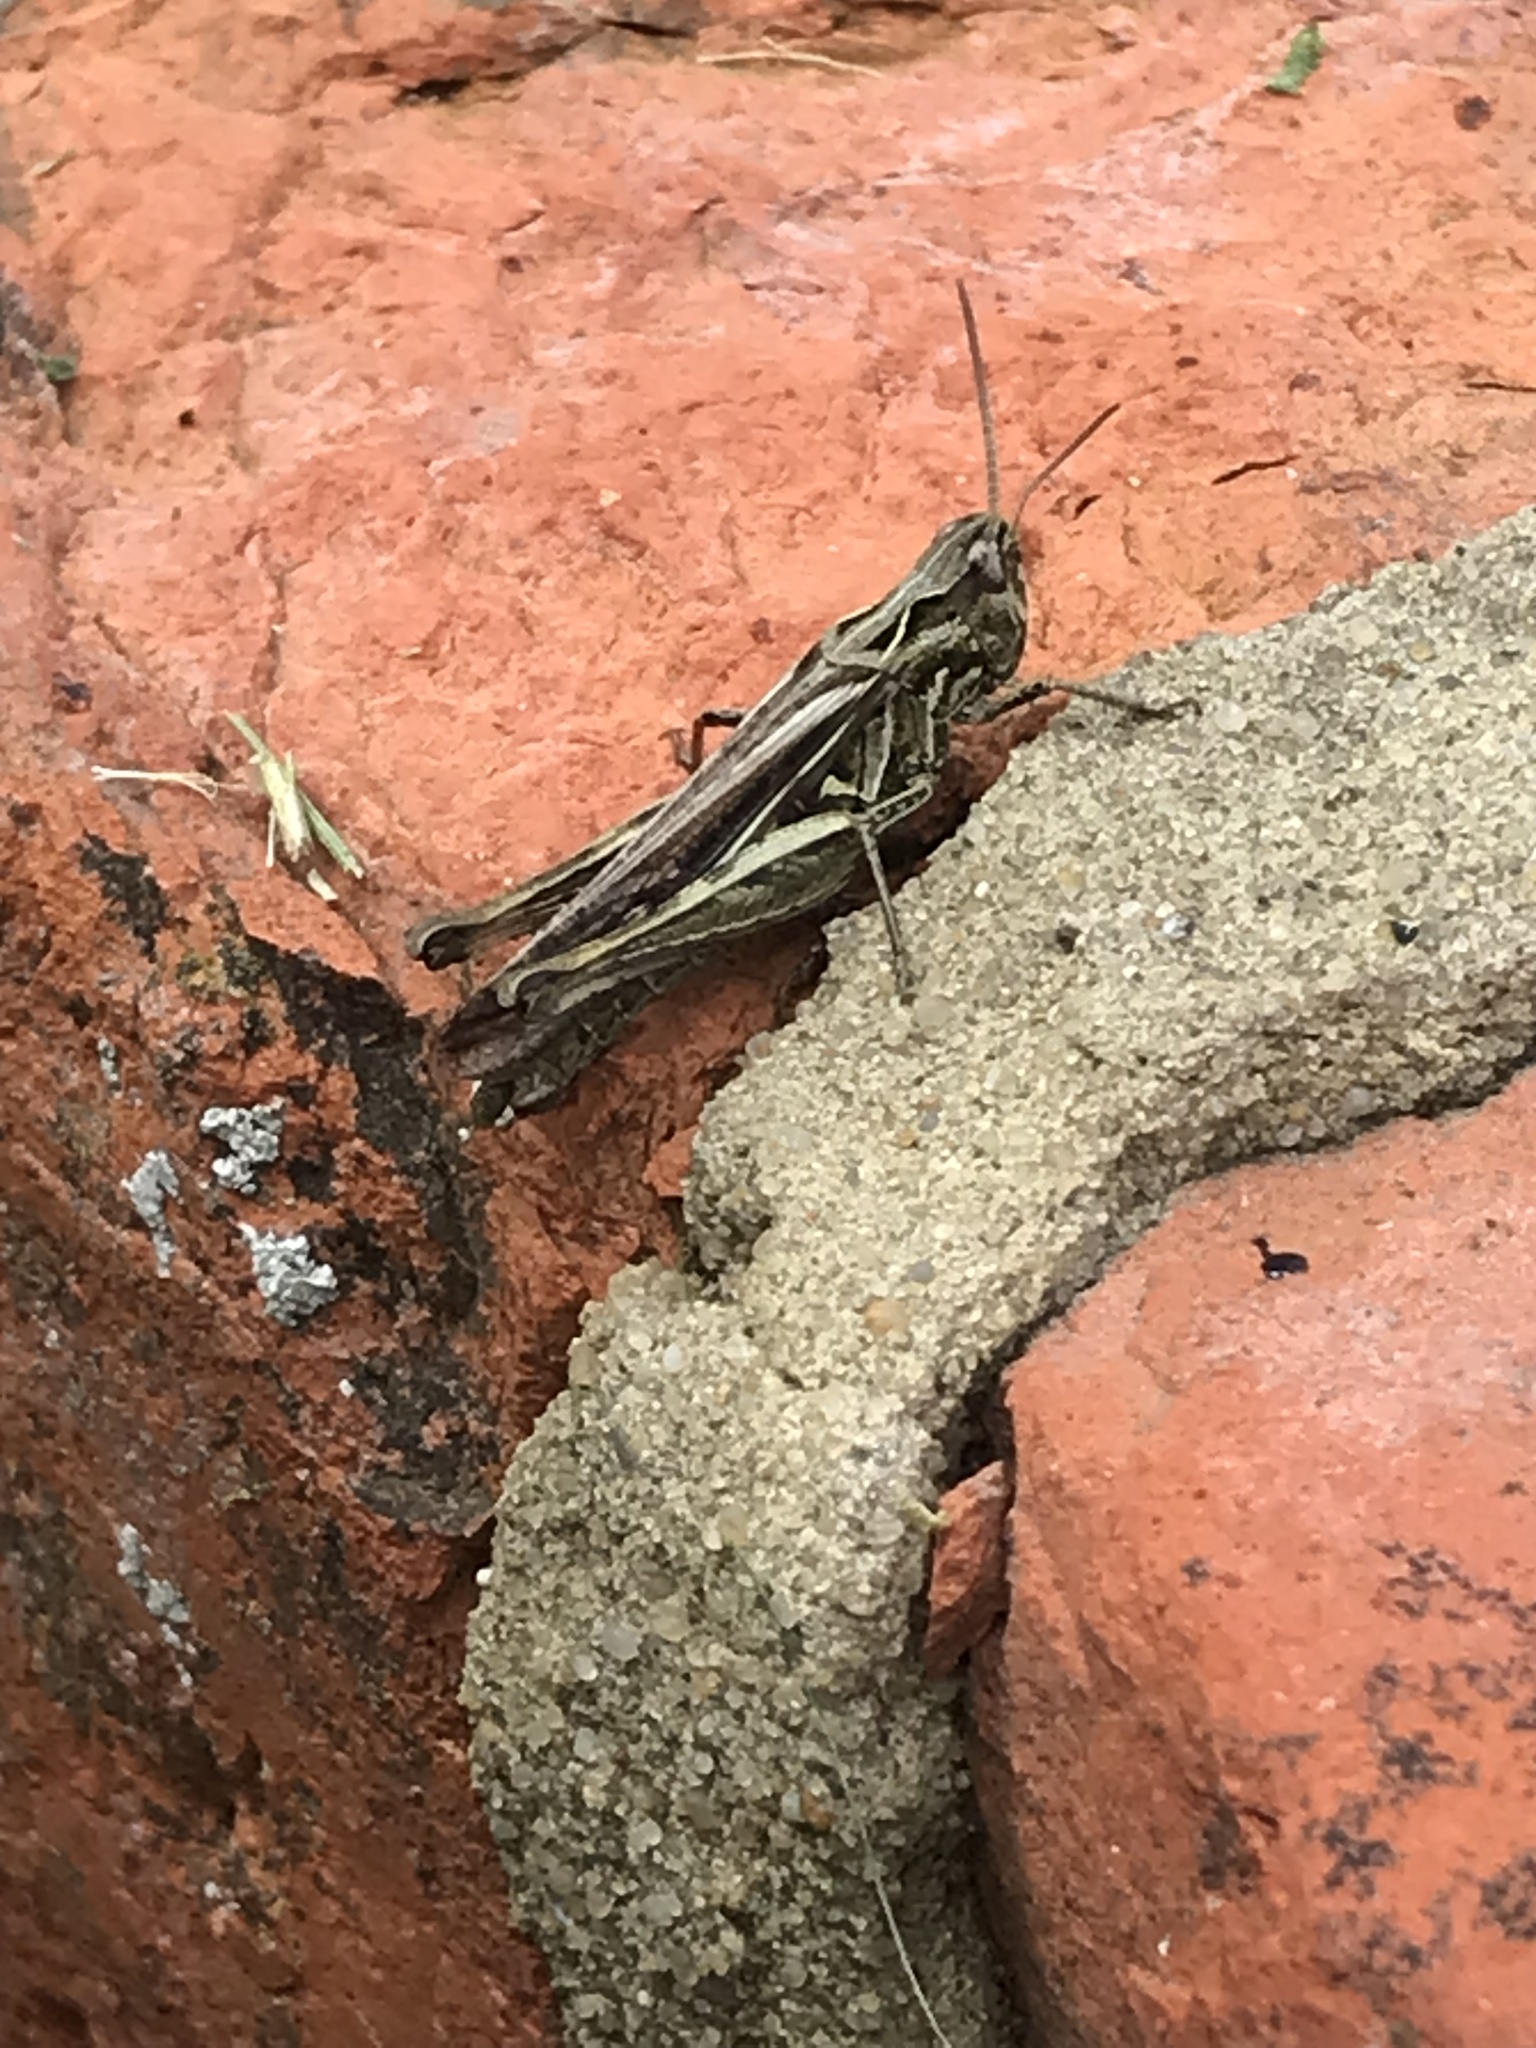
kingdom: Animalia
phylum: Arthropoda
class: Insecta
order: Orthoptera
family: Acrididae
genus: Chorthippus
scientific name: Chorthippus brunneus
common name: Field grasshopper
